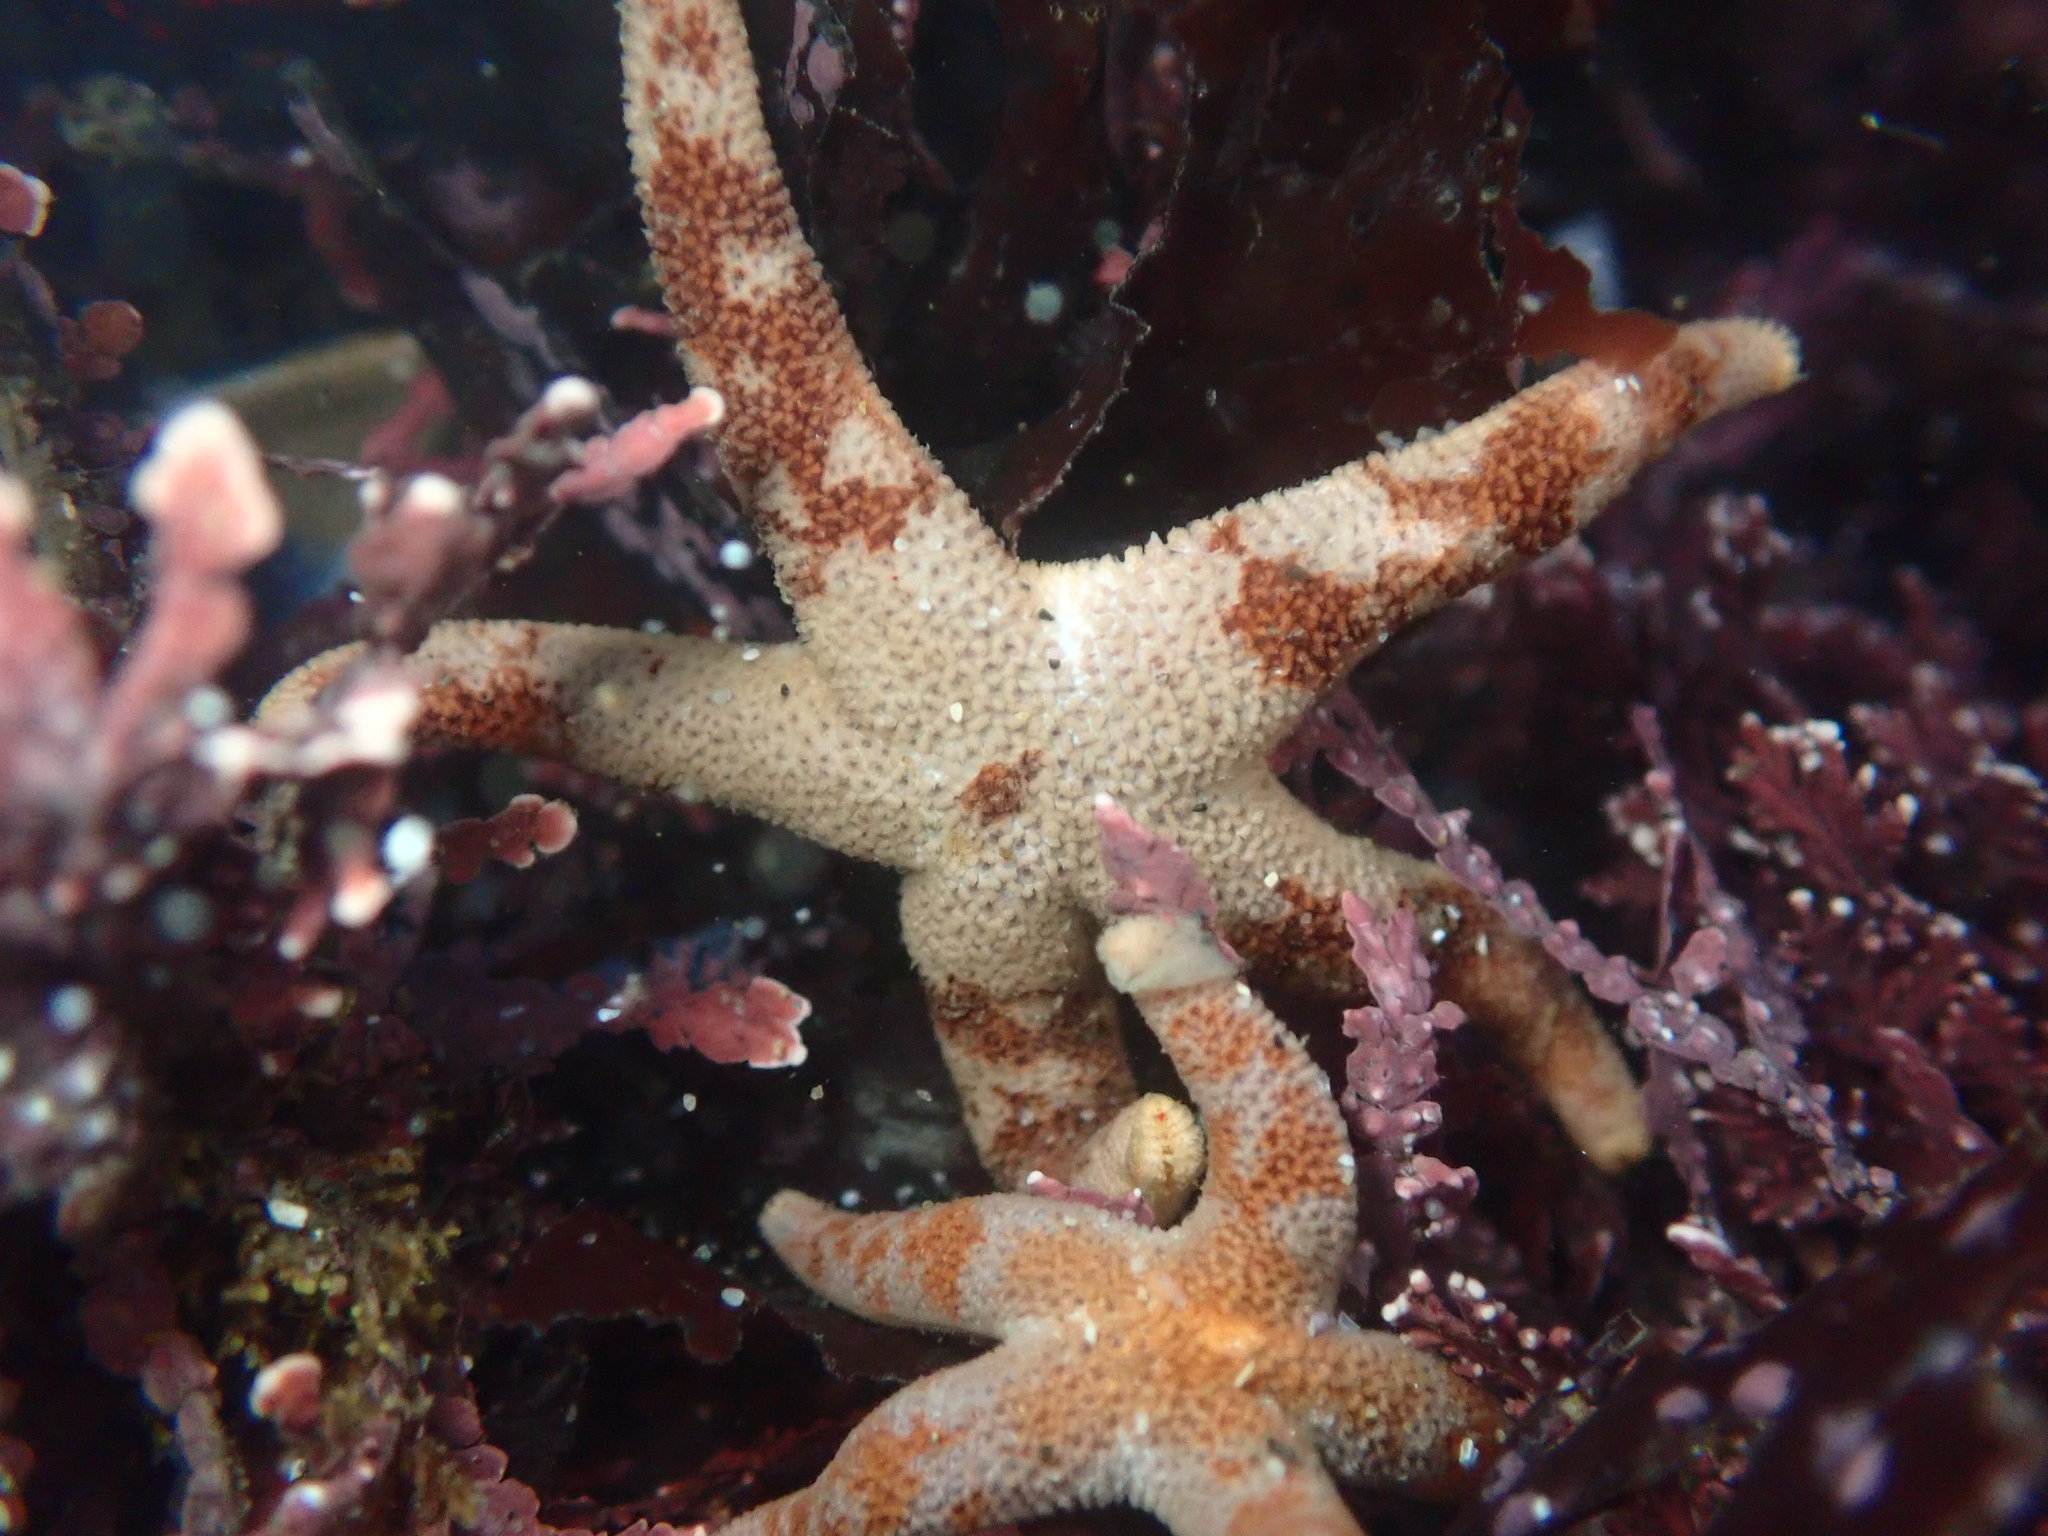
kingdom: Animalia
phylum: Echinodermata
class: Asteroidea
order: Spinulosida
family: Echinasteridae
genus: Henricia
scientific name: Henricia pumila
